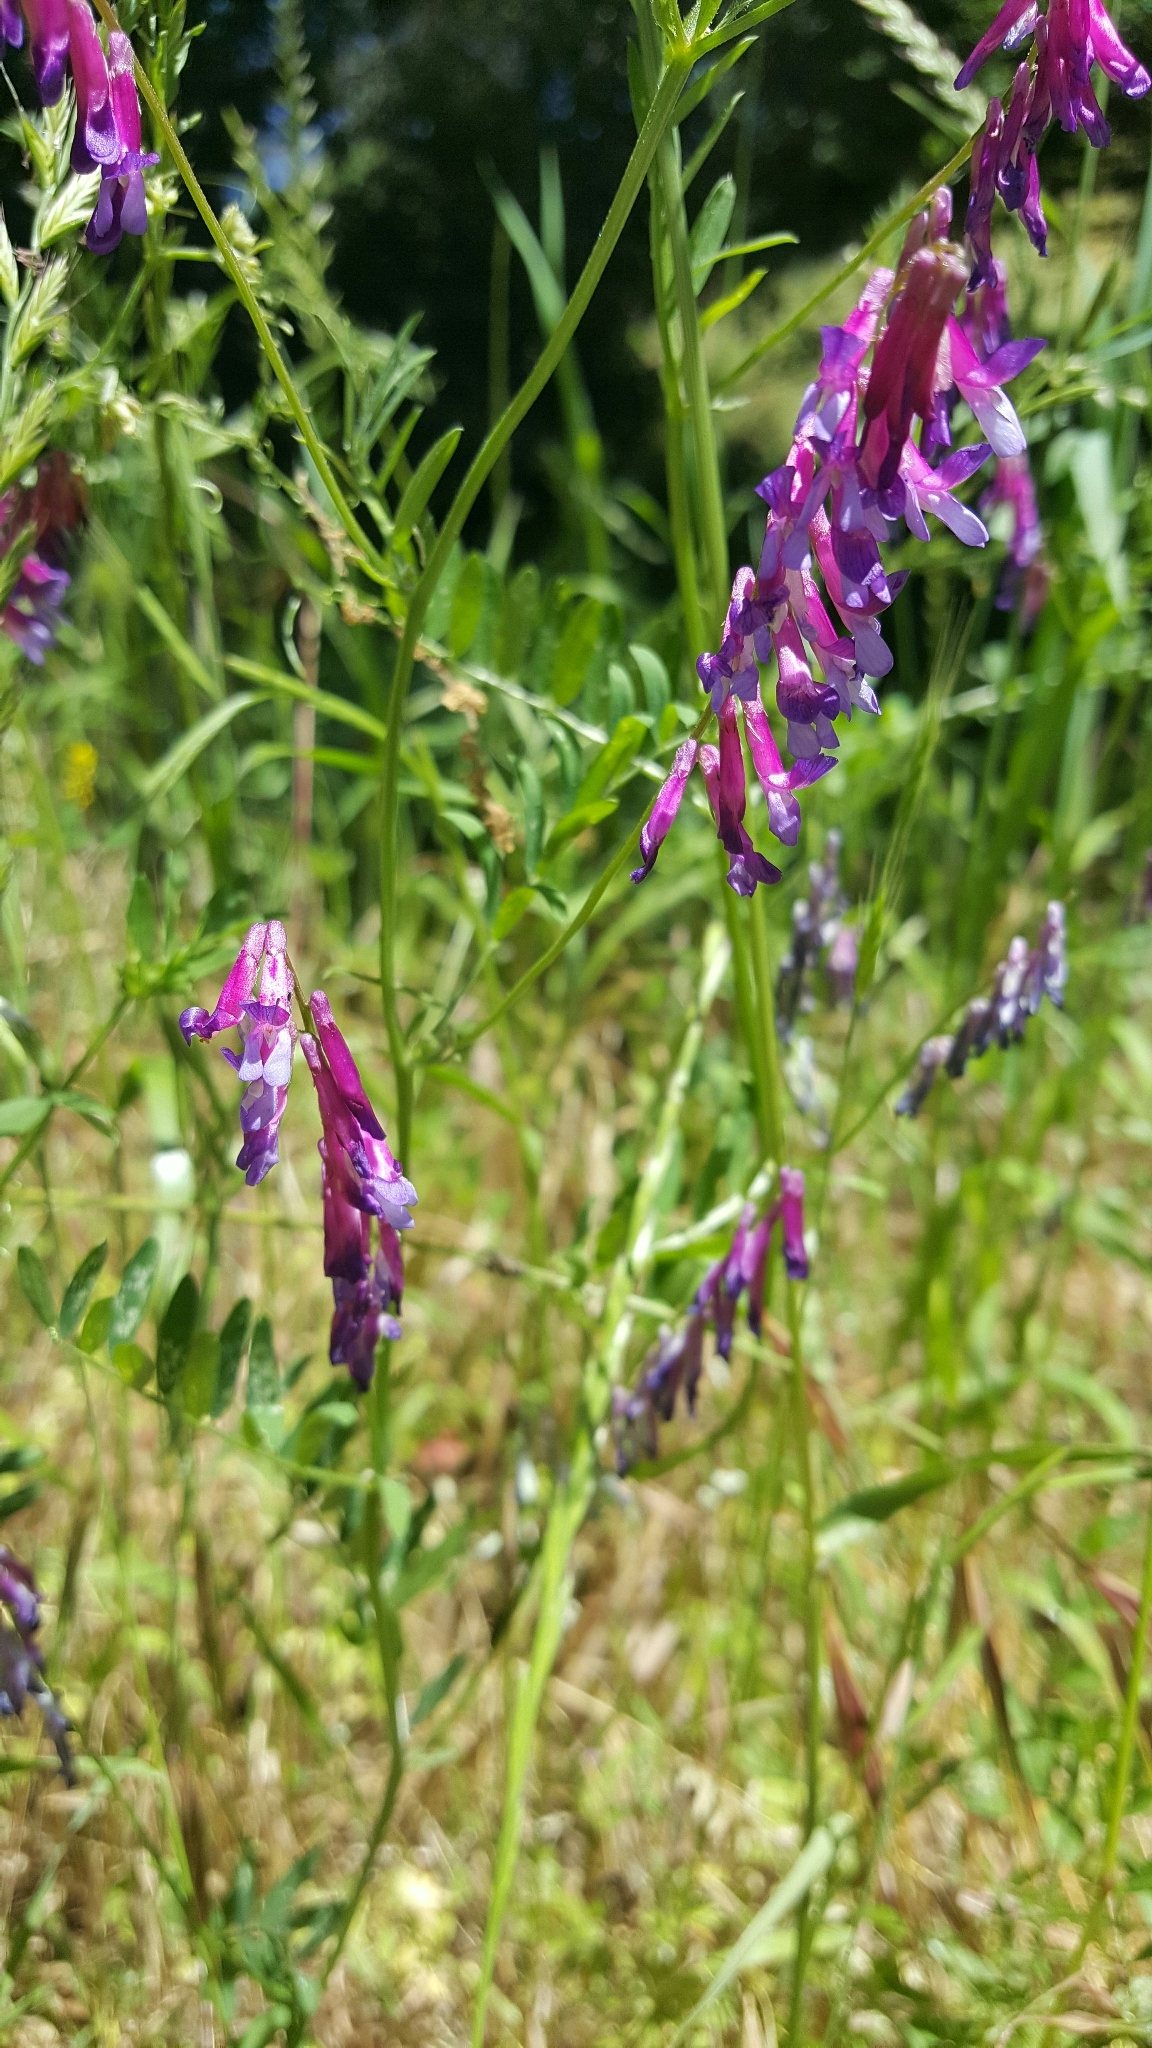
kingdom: Plantae
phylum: Tracheophyta
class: Magnoliopsida
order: Fabales
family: Fabaceae
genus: Vicia
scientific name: Vicia villosa
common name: Fodder vetch
